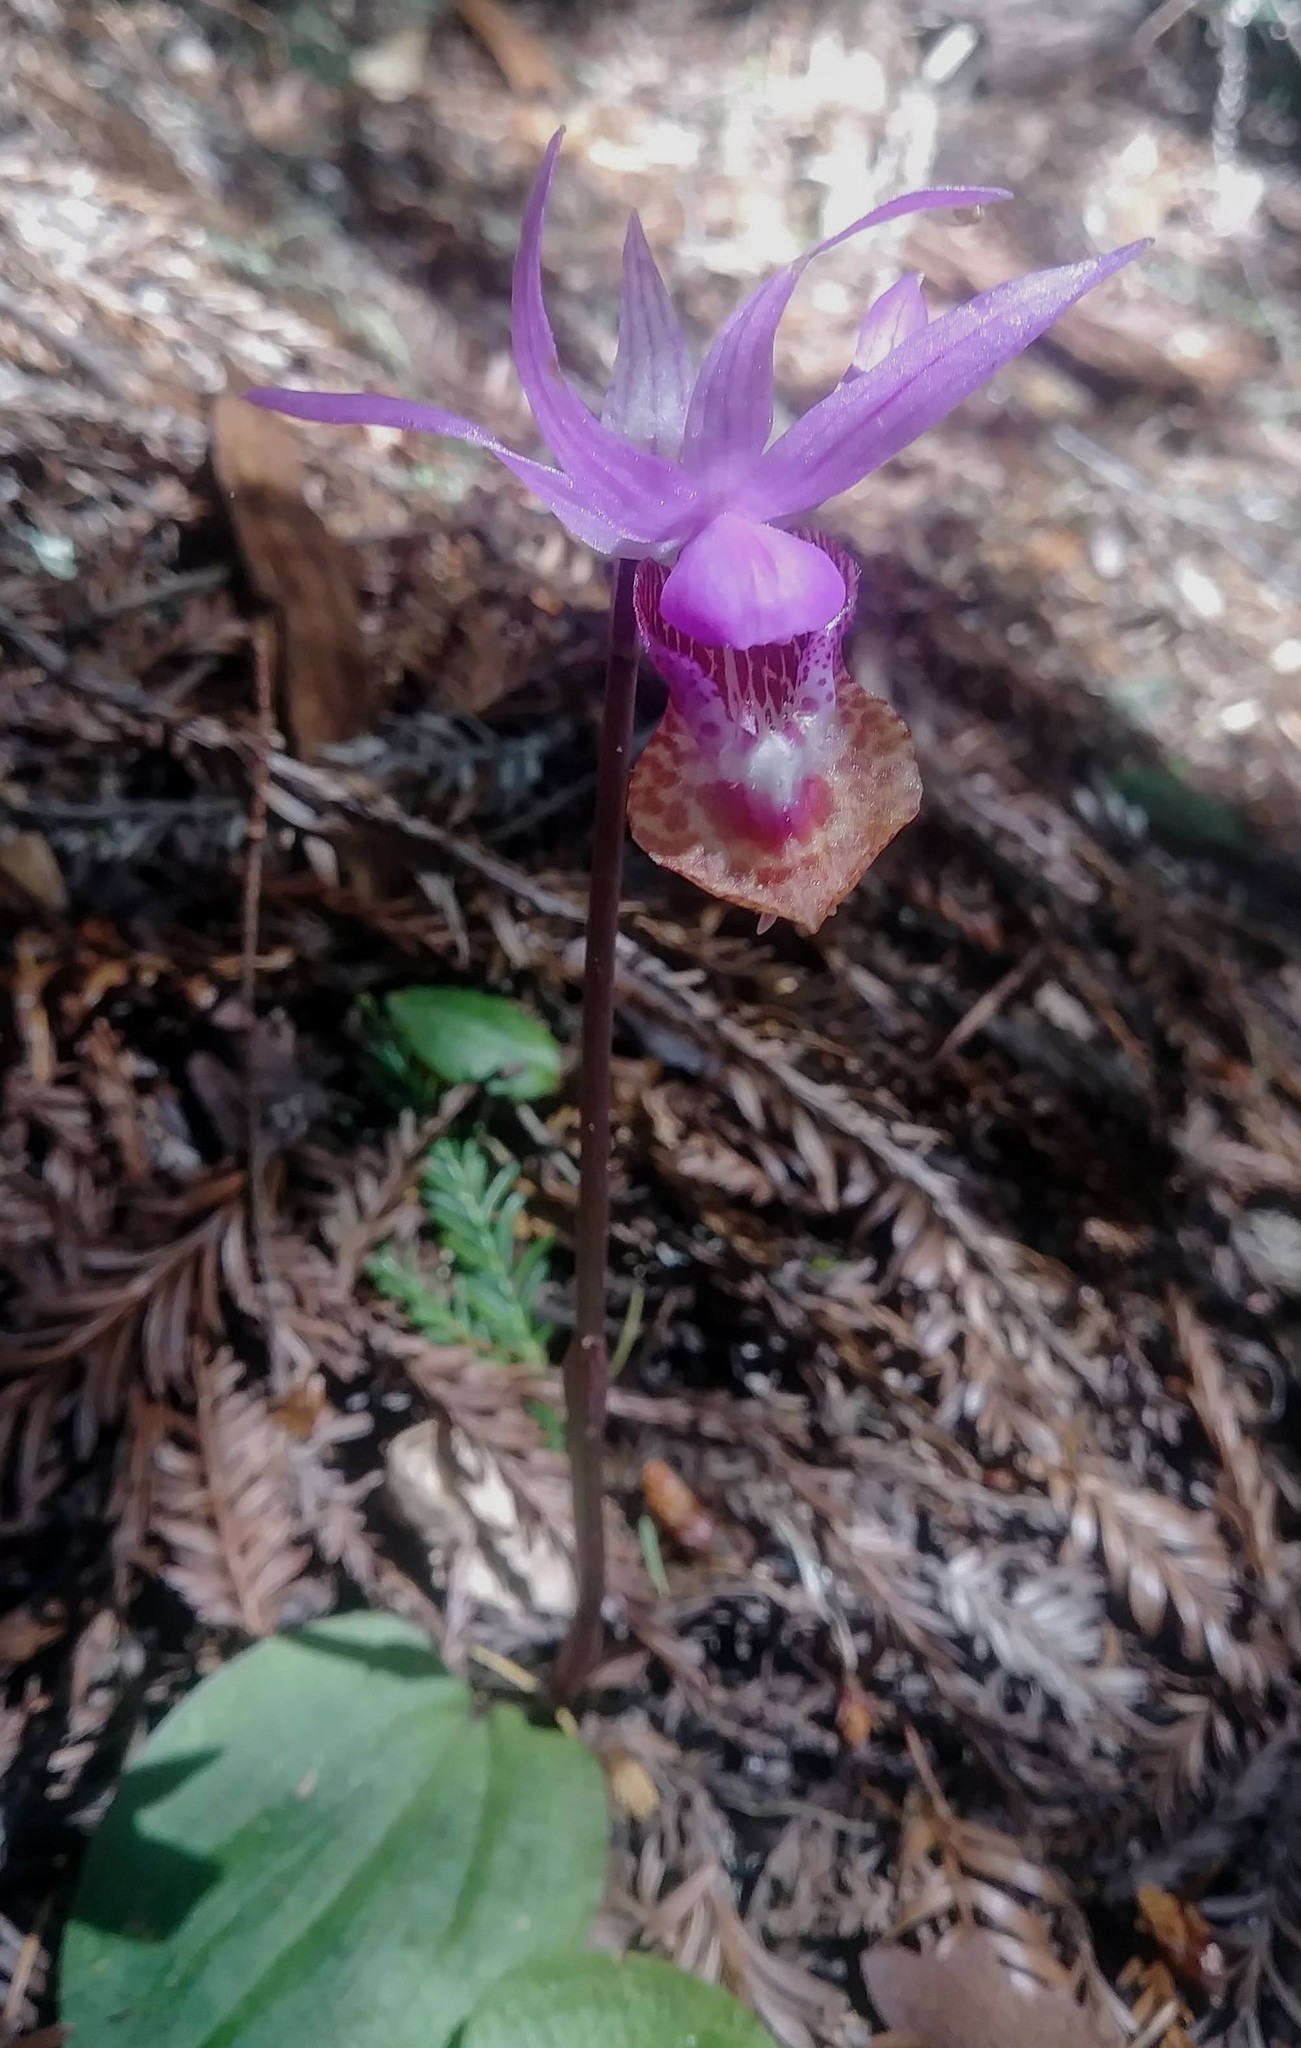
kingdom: Plantae
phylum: Tracheophyta
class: Liliopsida
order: Asparagales
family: Orchidaceae
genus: Calypso
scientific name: Calypso bulbosa
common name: Calypso
